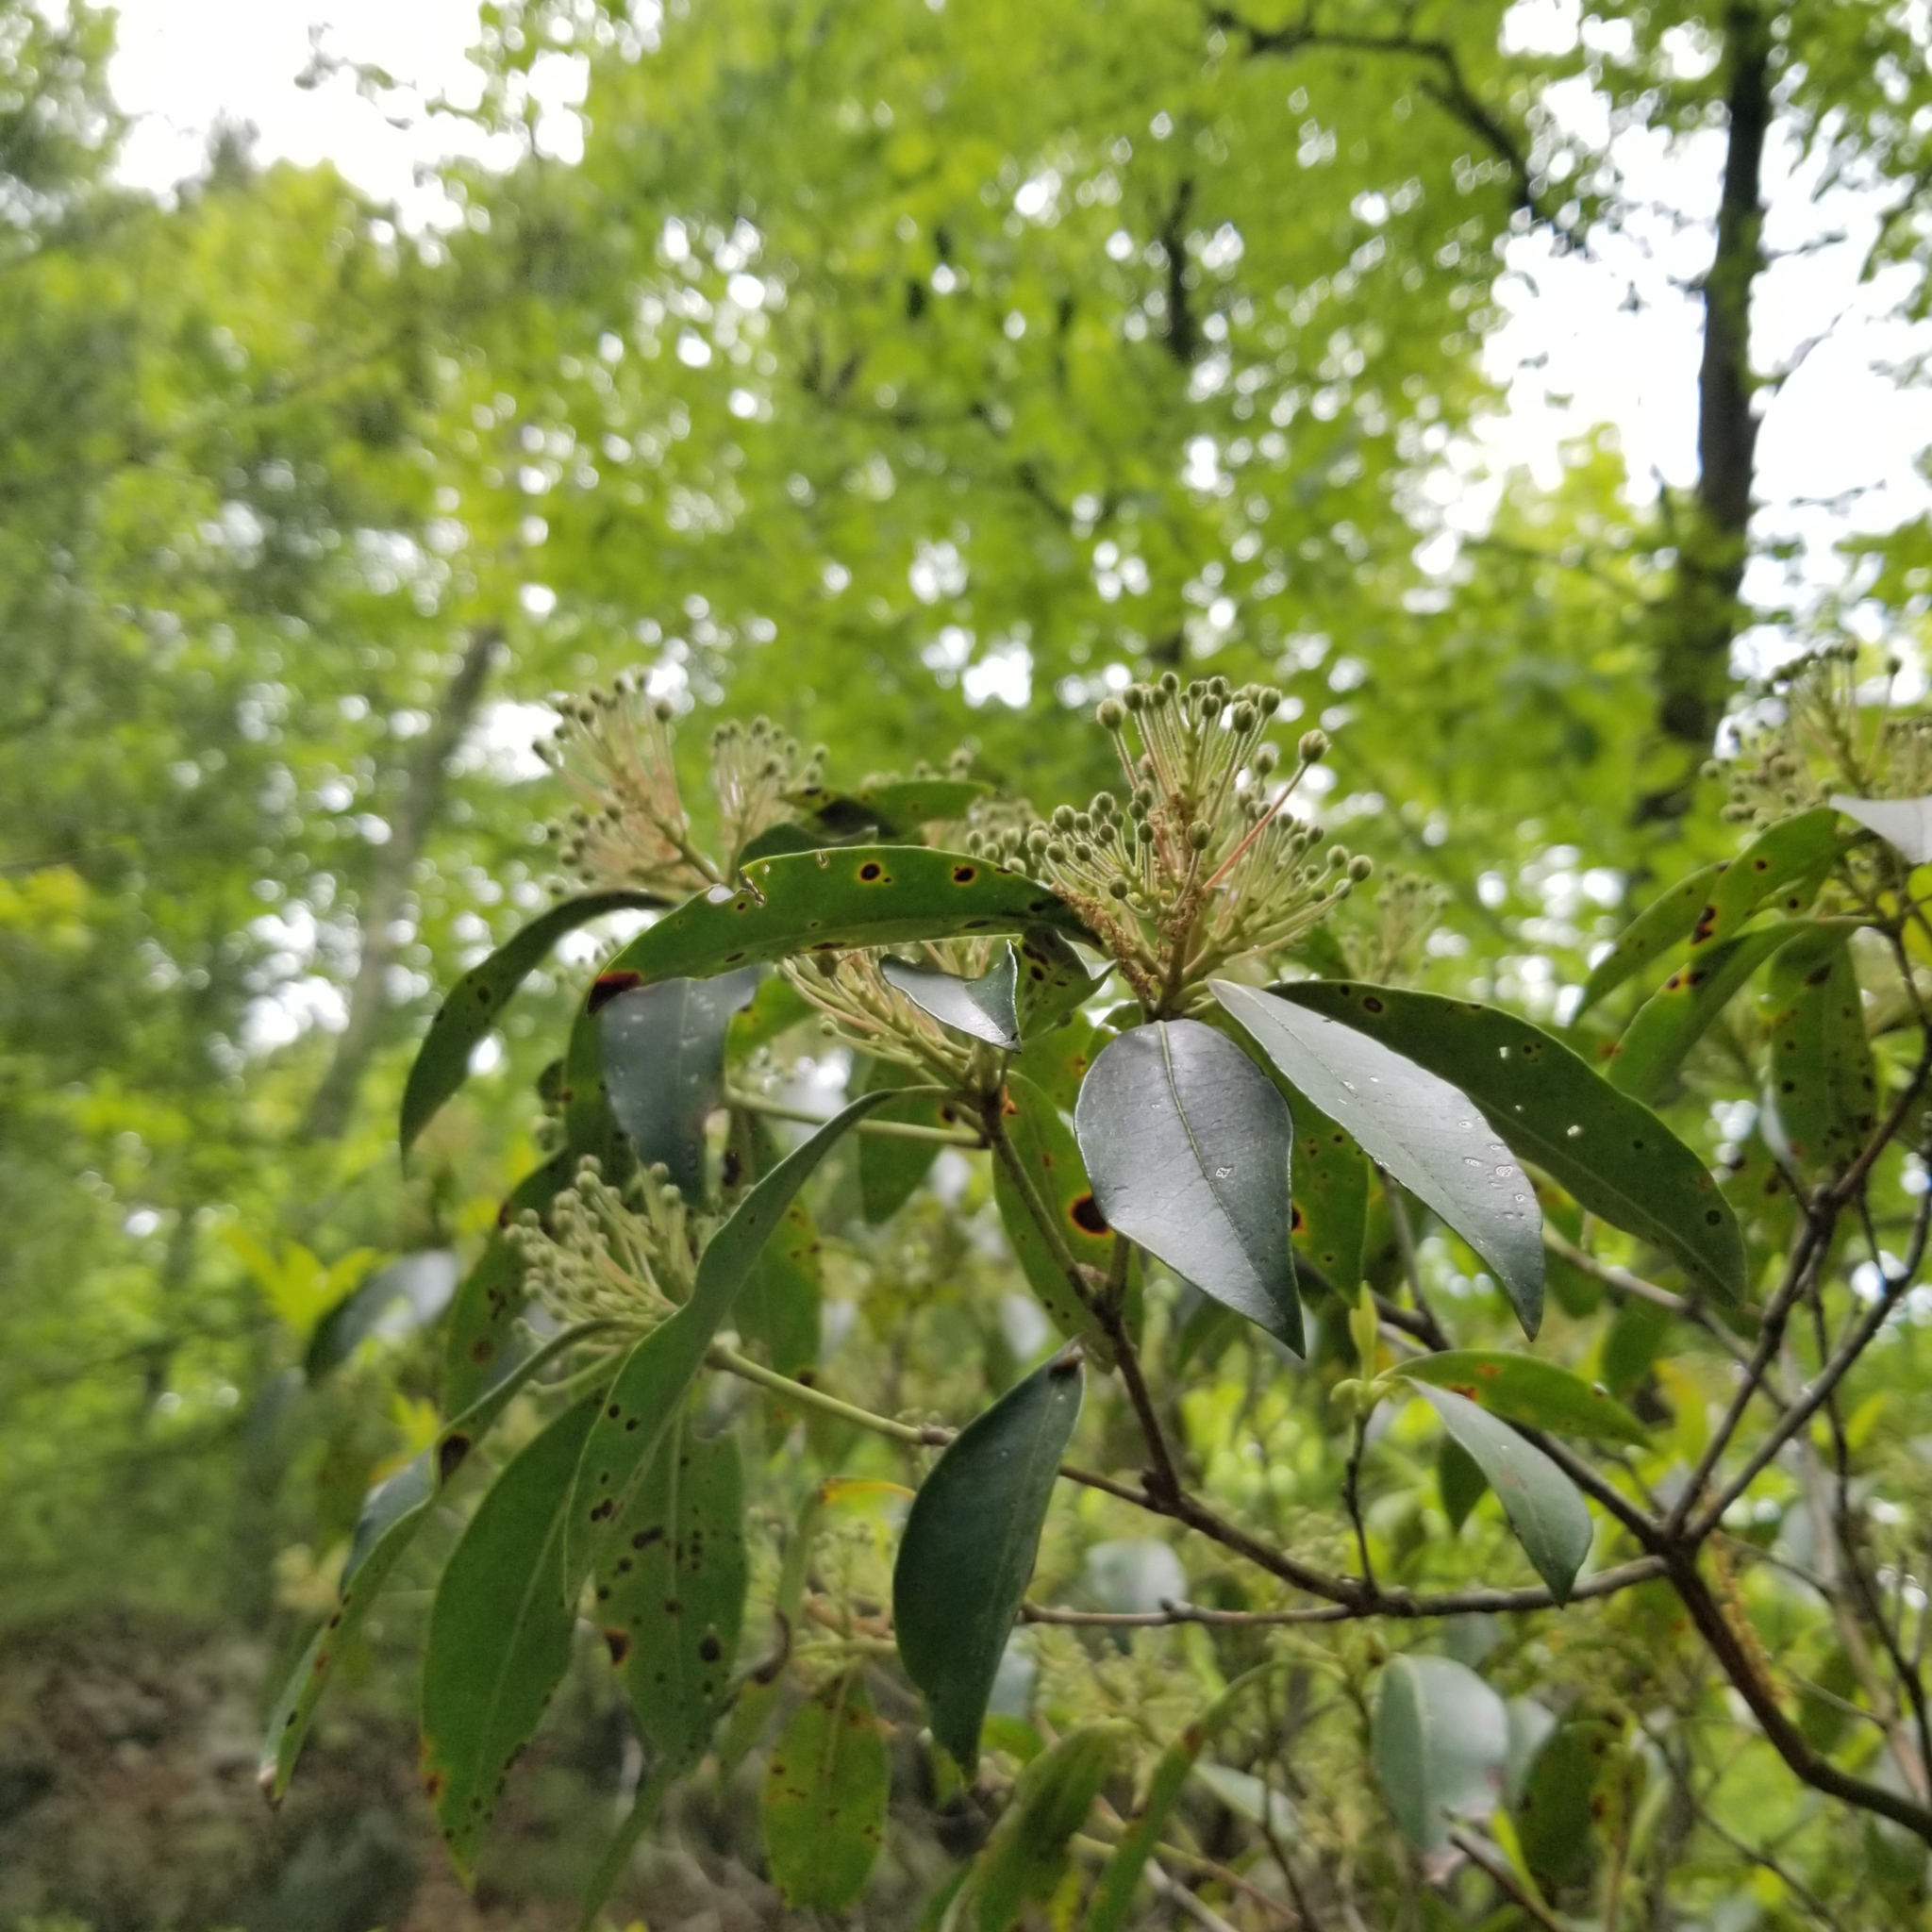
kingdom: Plantae
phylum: Tracheophyta
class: Magnoliopsida
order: Ericales
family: Ericaceae
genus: Kalmia
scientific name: Kalmia latifolia
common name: Mountain-laurel
